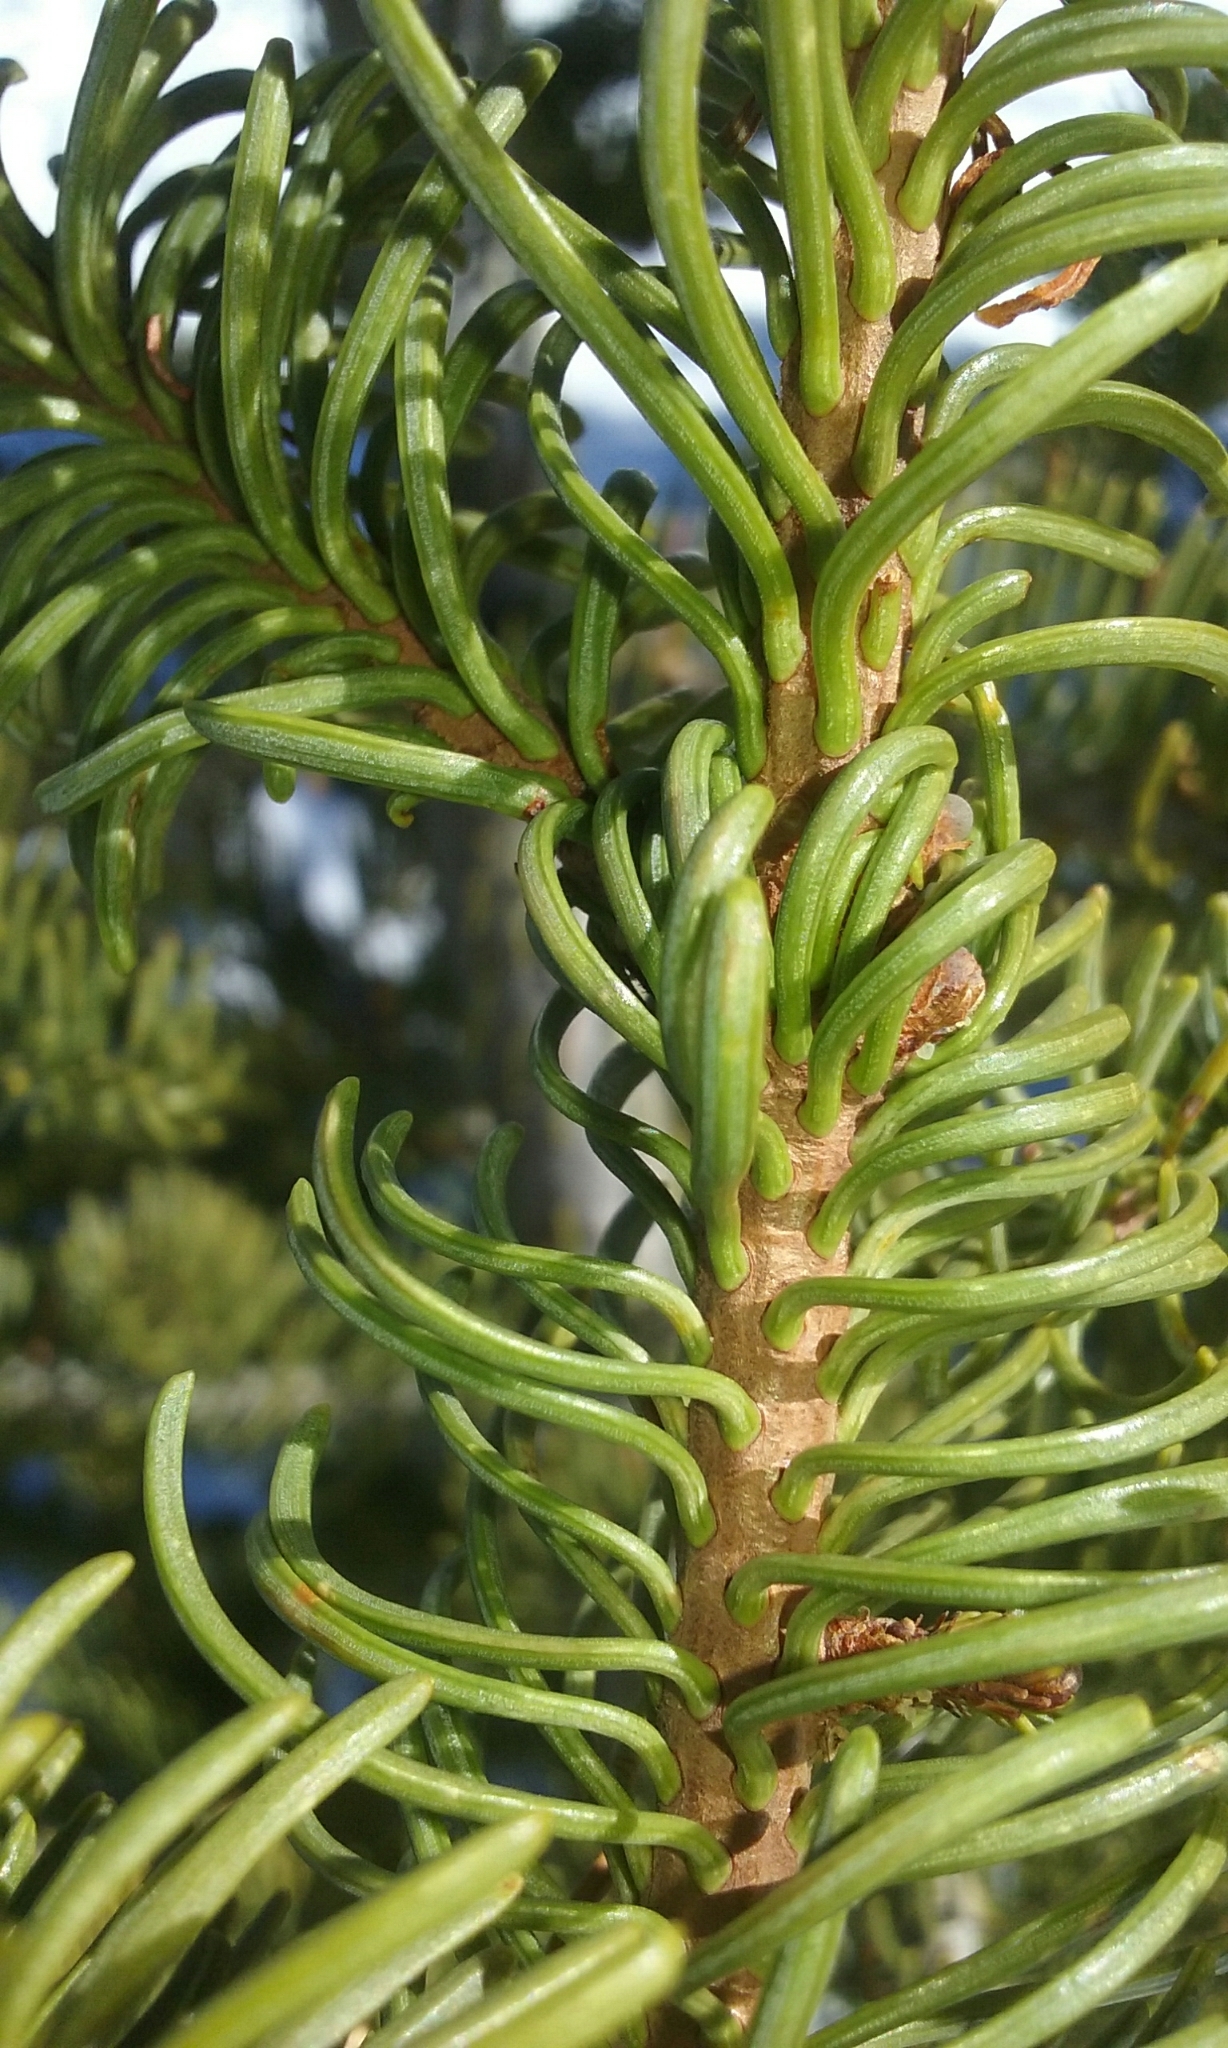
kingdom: Plantae
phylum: Tracheophyta
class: Pinopsida
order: Pinales
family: Pinaceae
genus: Abies
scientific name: Abies magnifica bis
